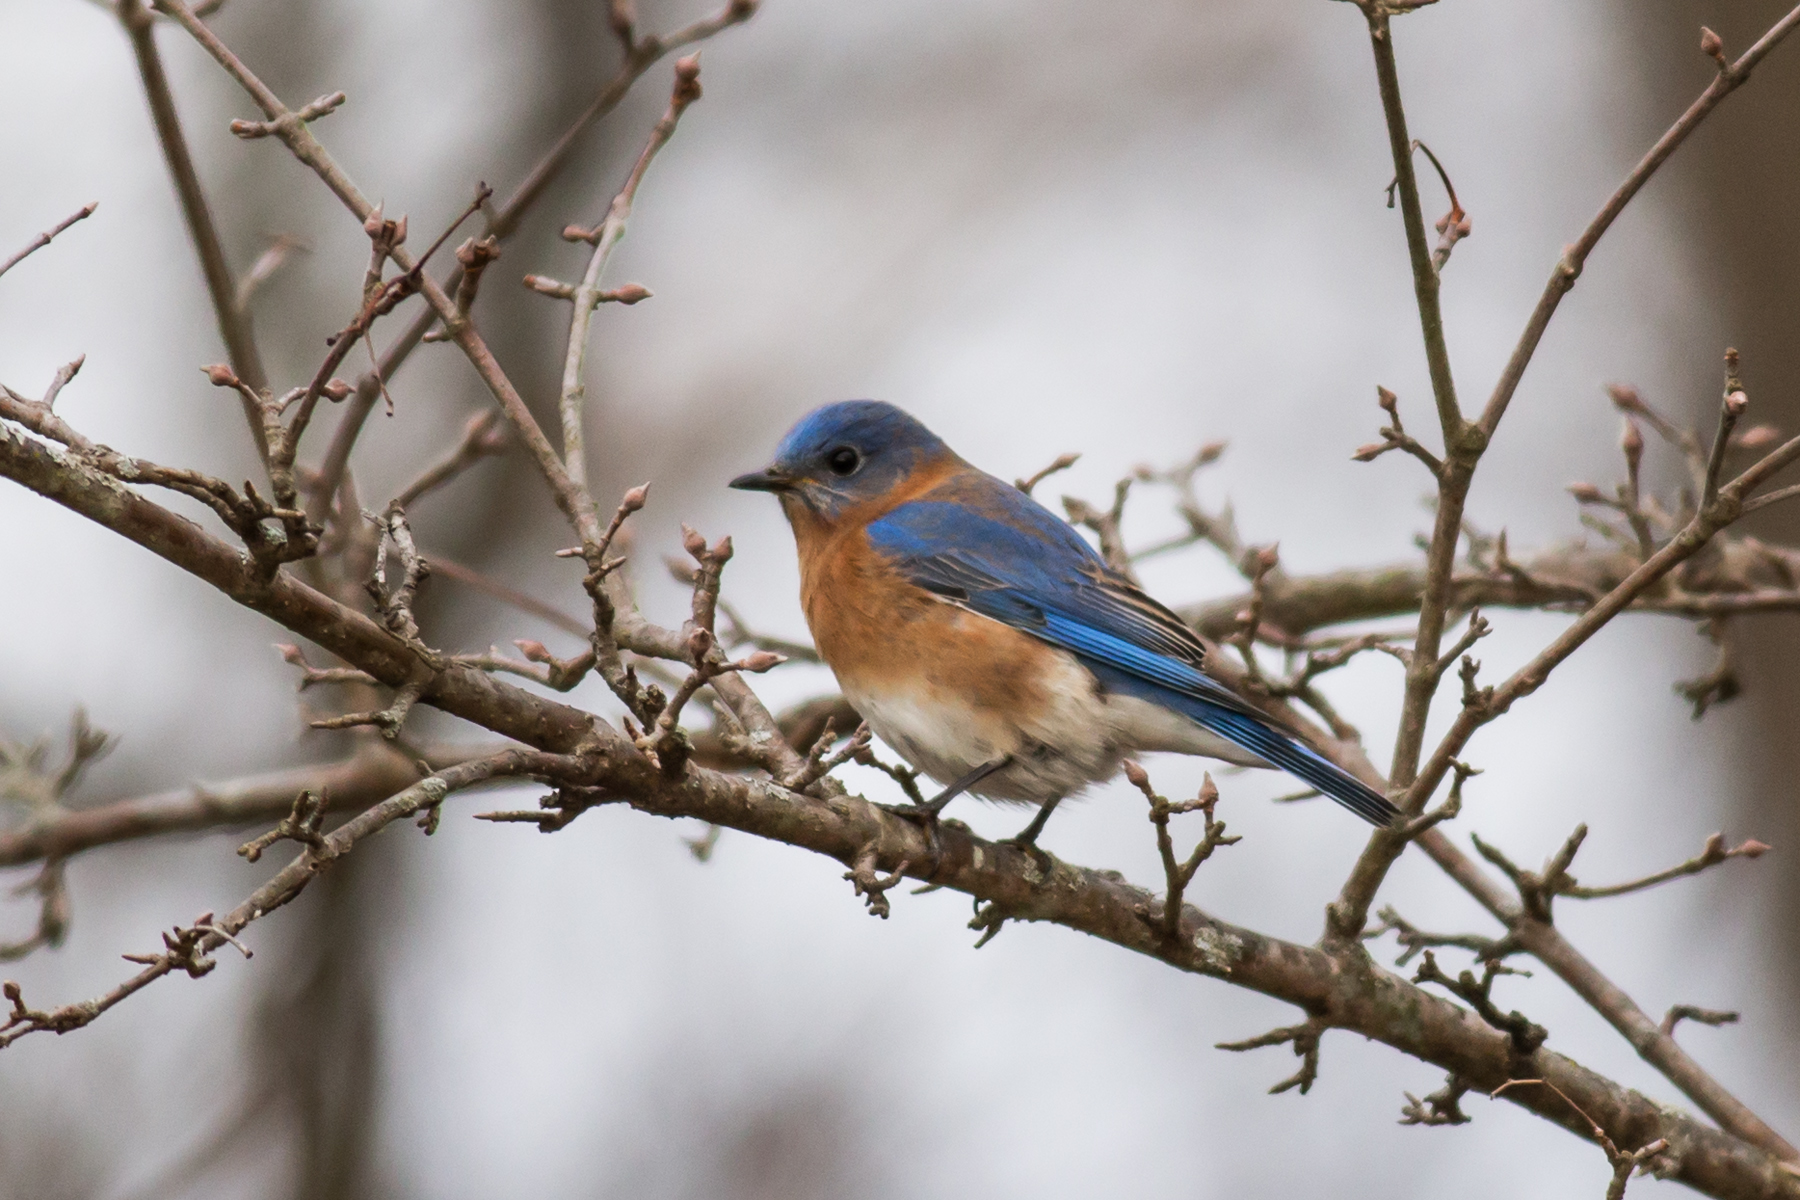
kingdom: Animalia
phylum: Chordata
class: Aves
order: Passeriformes
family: Turdidae
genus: Sialia
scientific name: Sialia sialis
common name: Eastern bluebird
